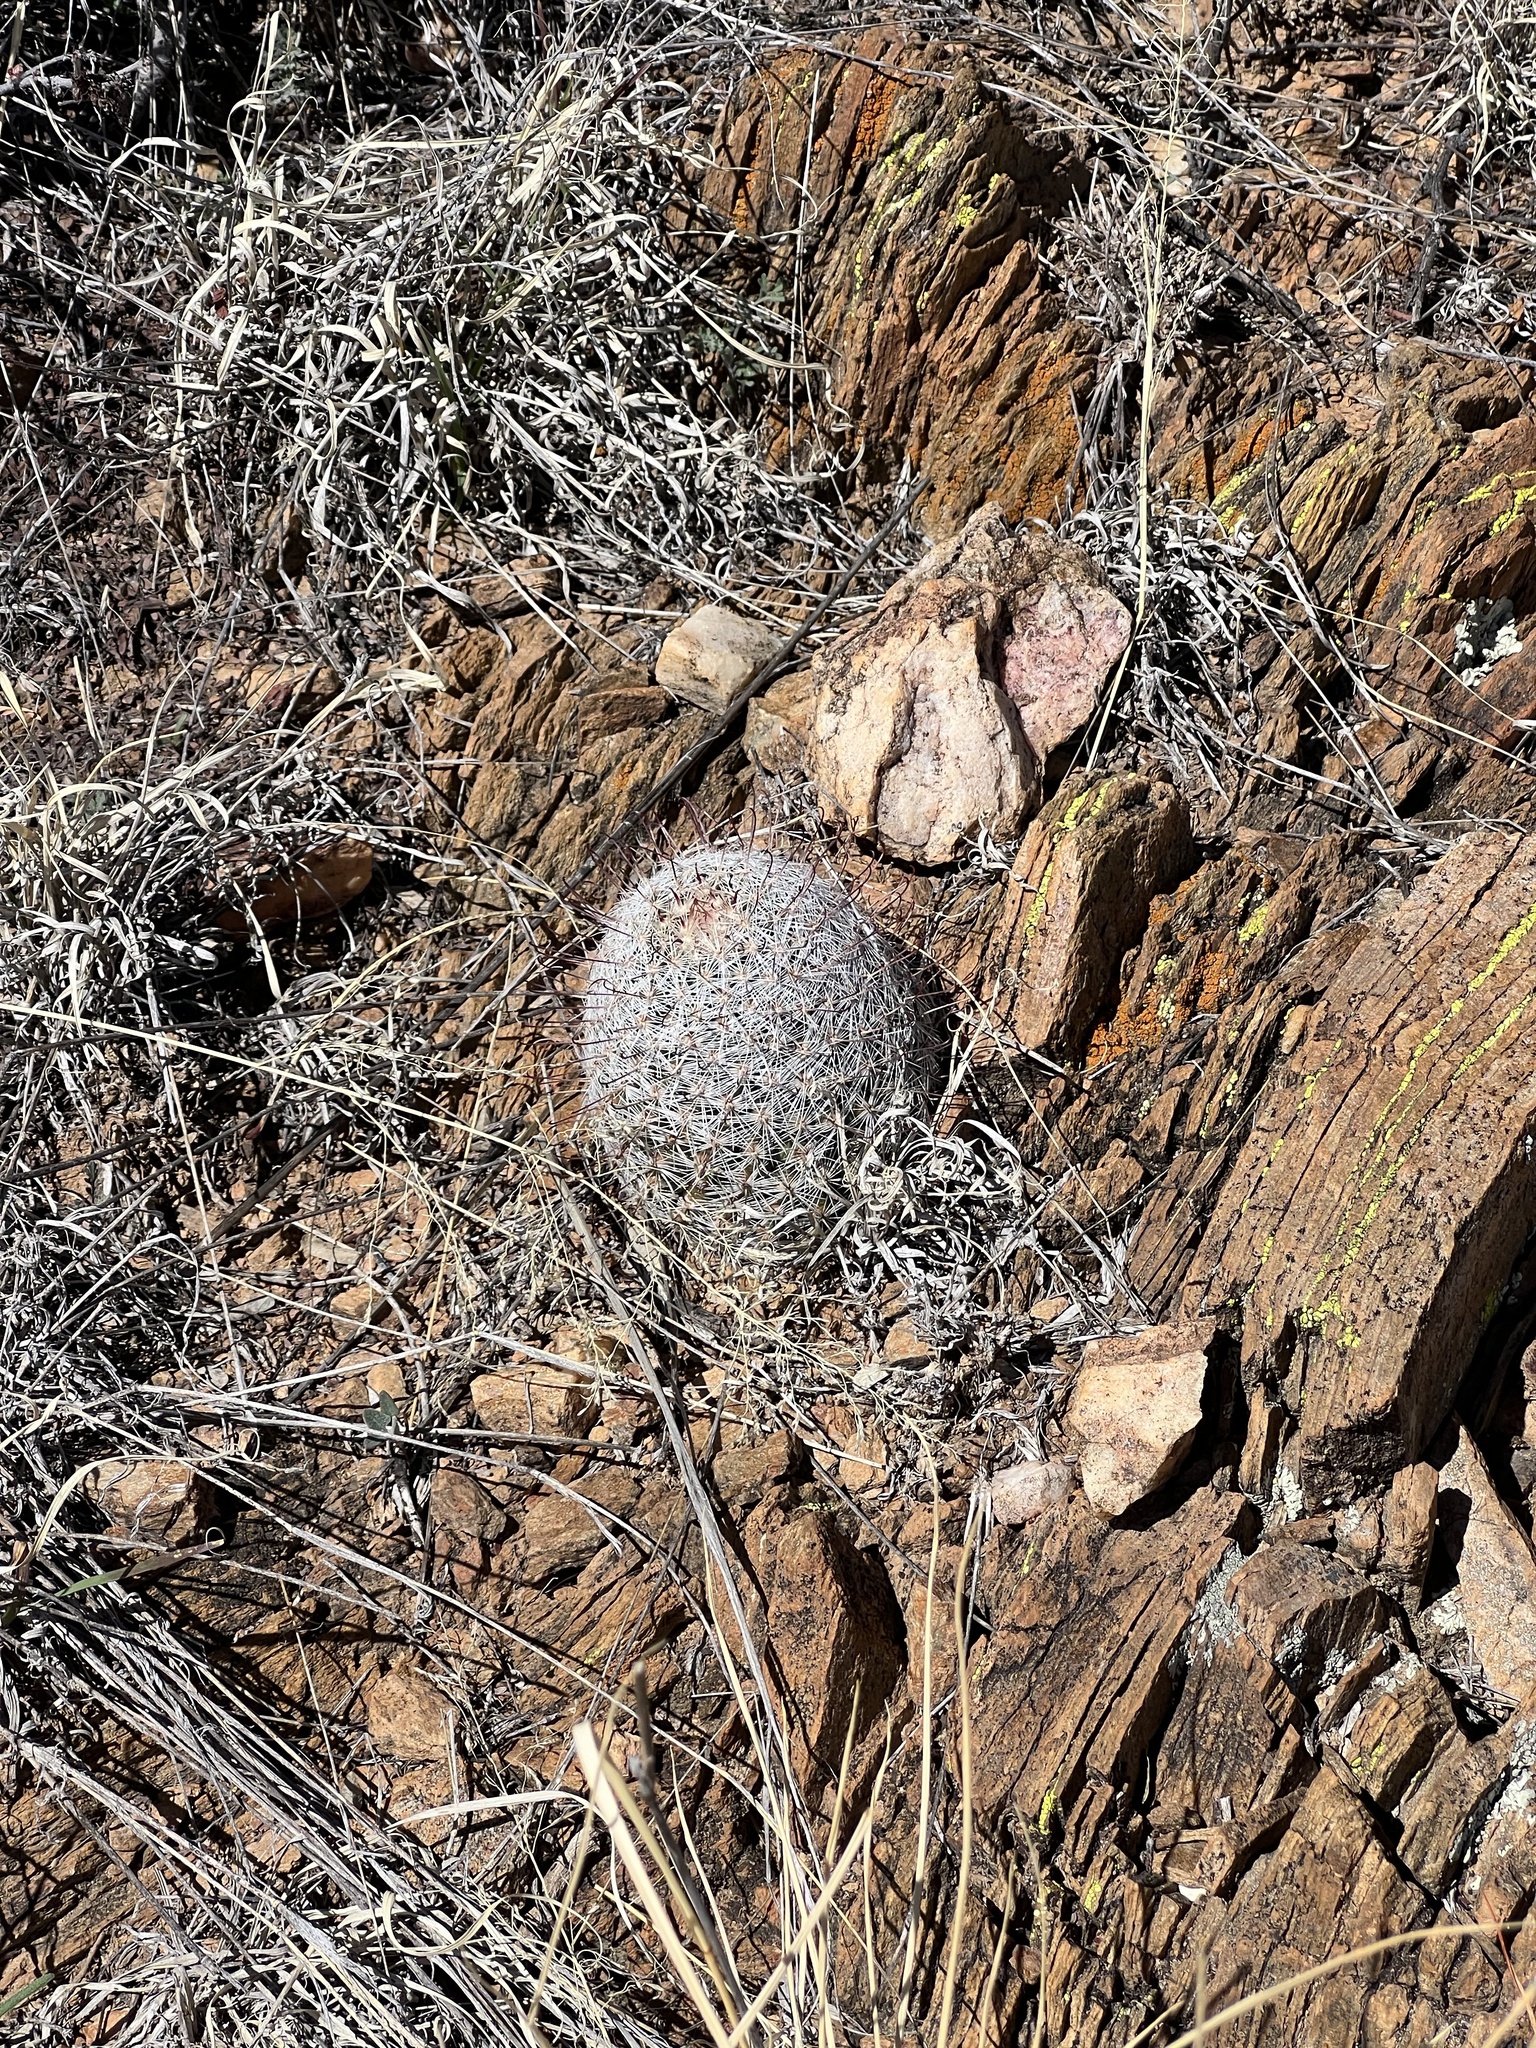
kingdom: Plantae
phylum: Tracheophyta
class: Magnoliopsida
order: Caryophyllales
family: Cactaceae
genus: Cochemiea
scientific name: Cochemiea grahamii
